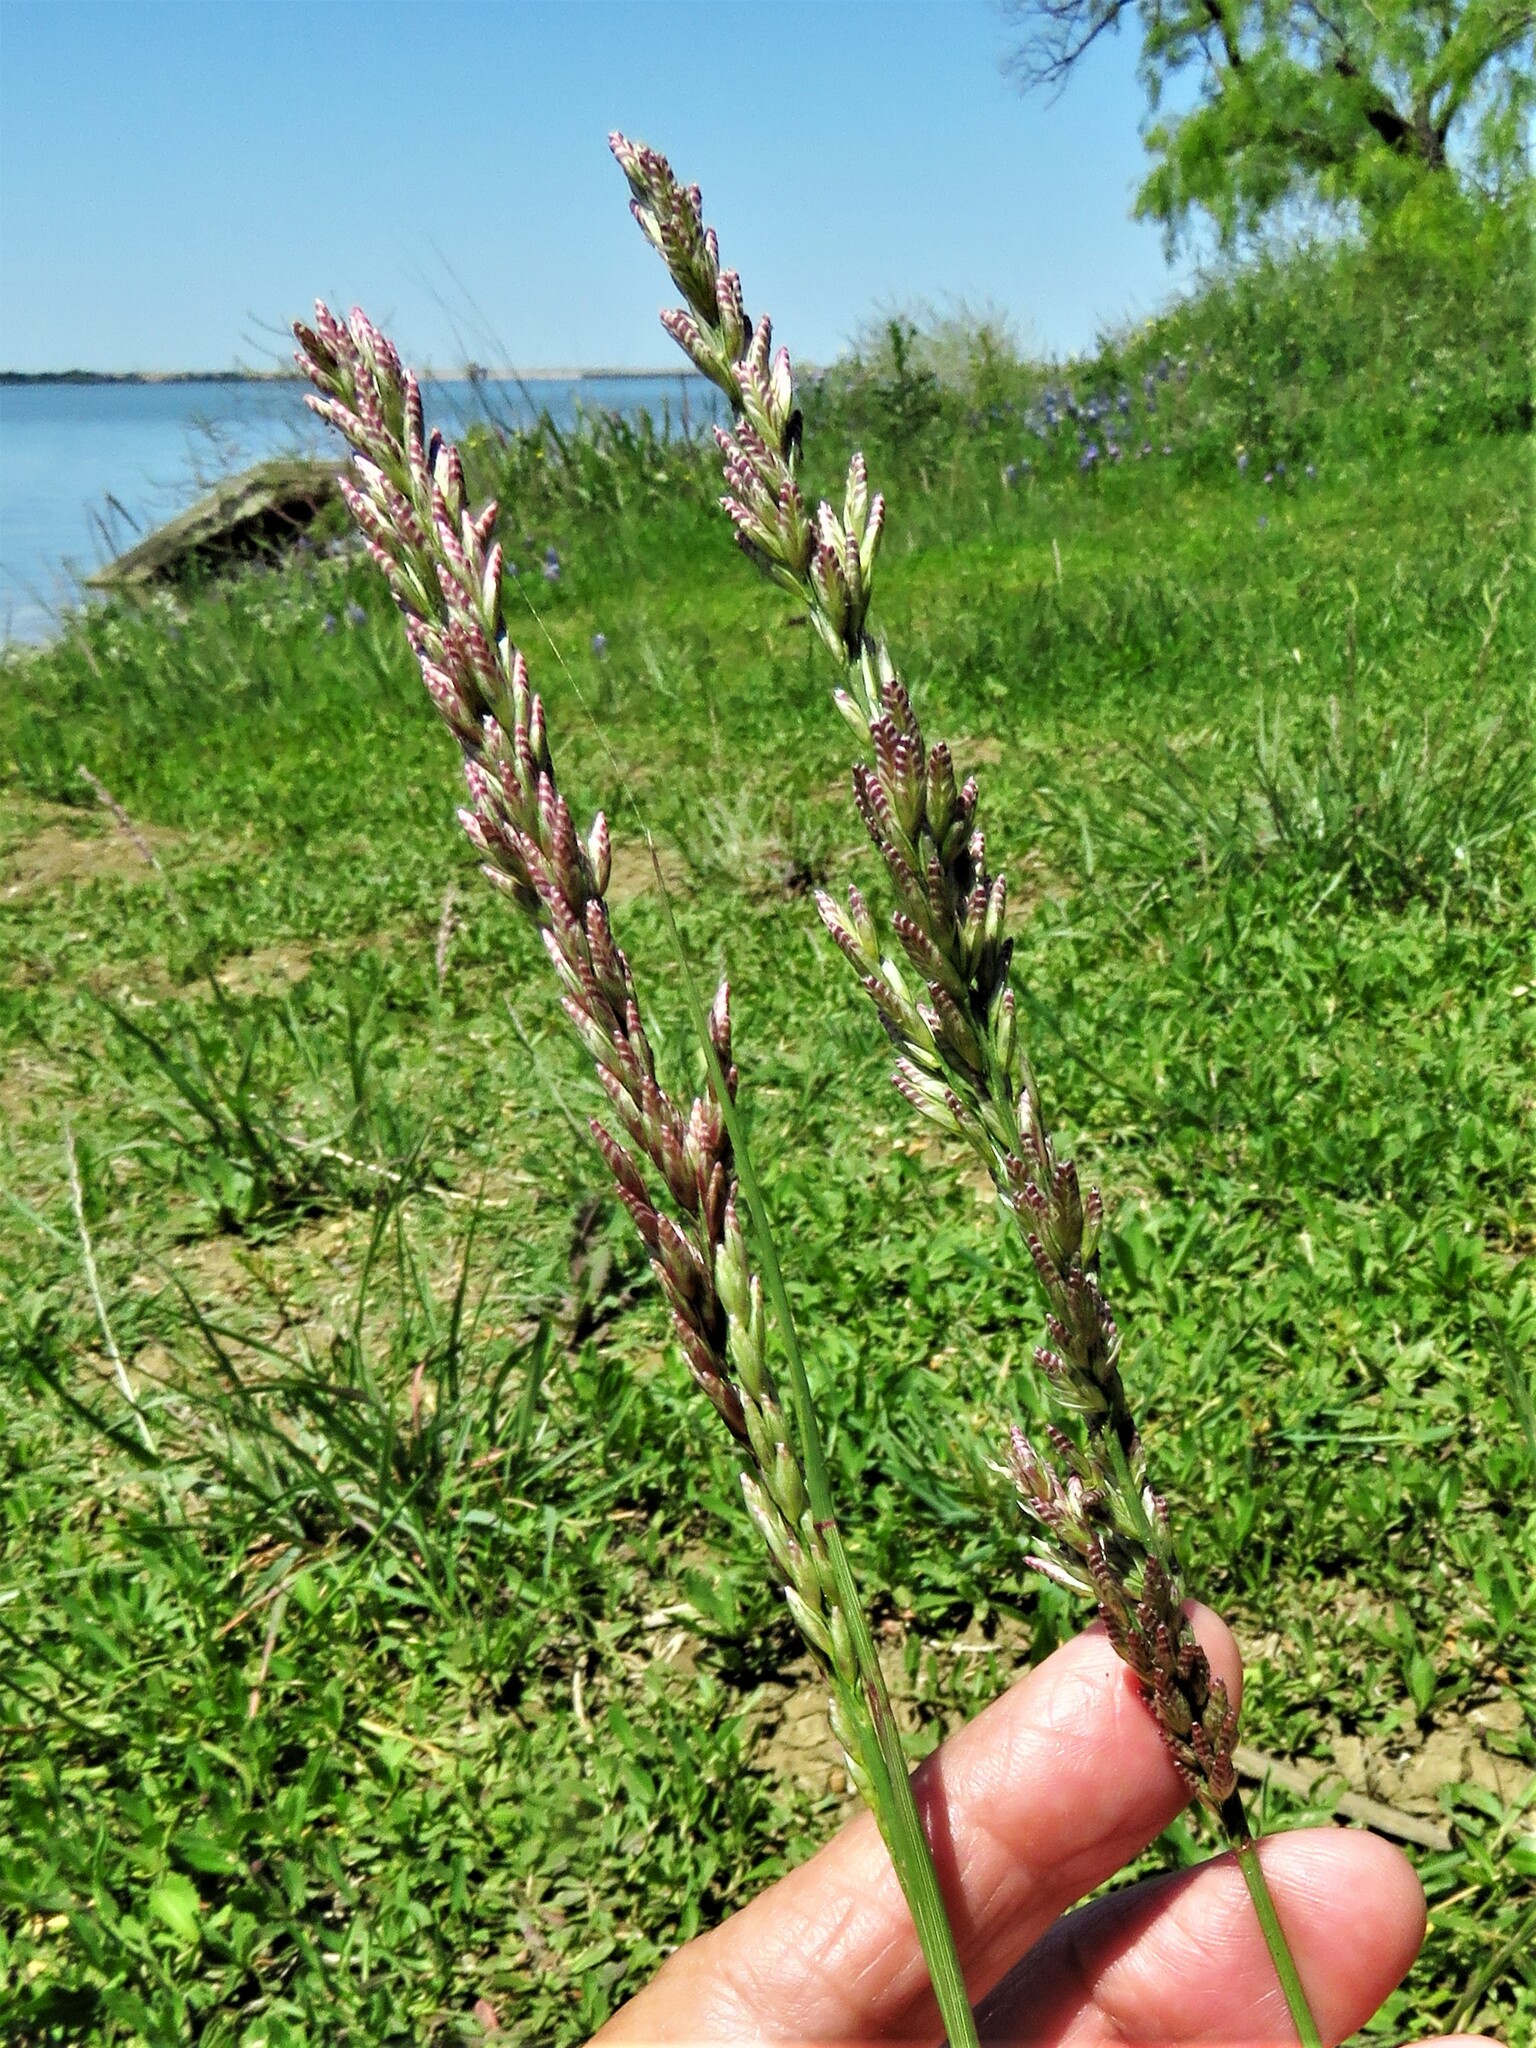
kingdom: Plantae
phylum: Tracheophyta
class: Liliopsida
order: Poales
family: Poaceae
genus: Tridens
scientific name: Tridens albescens
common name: White tridens
